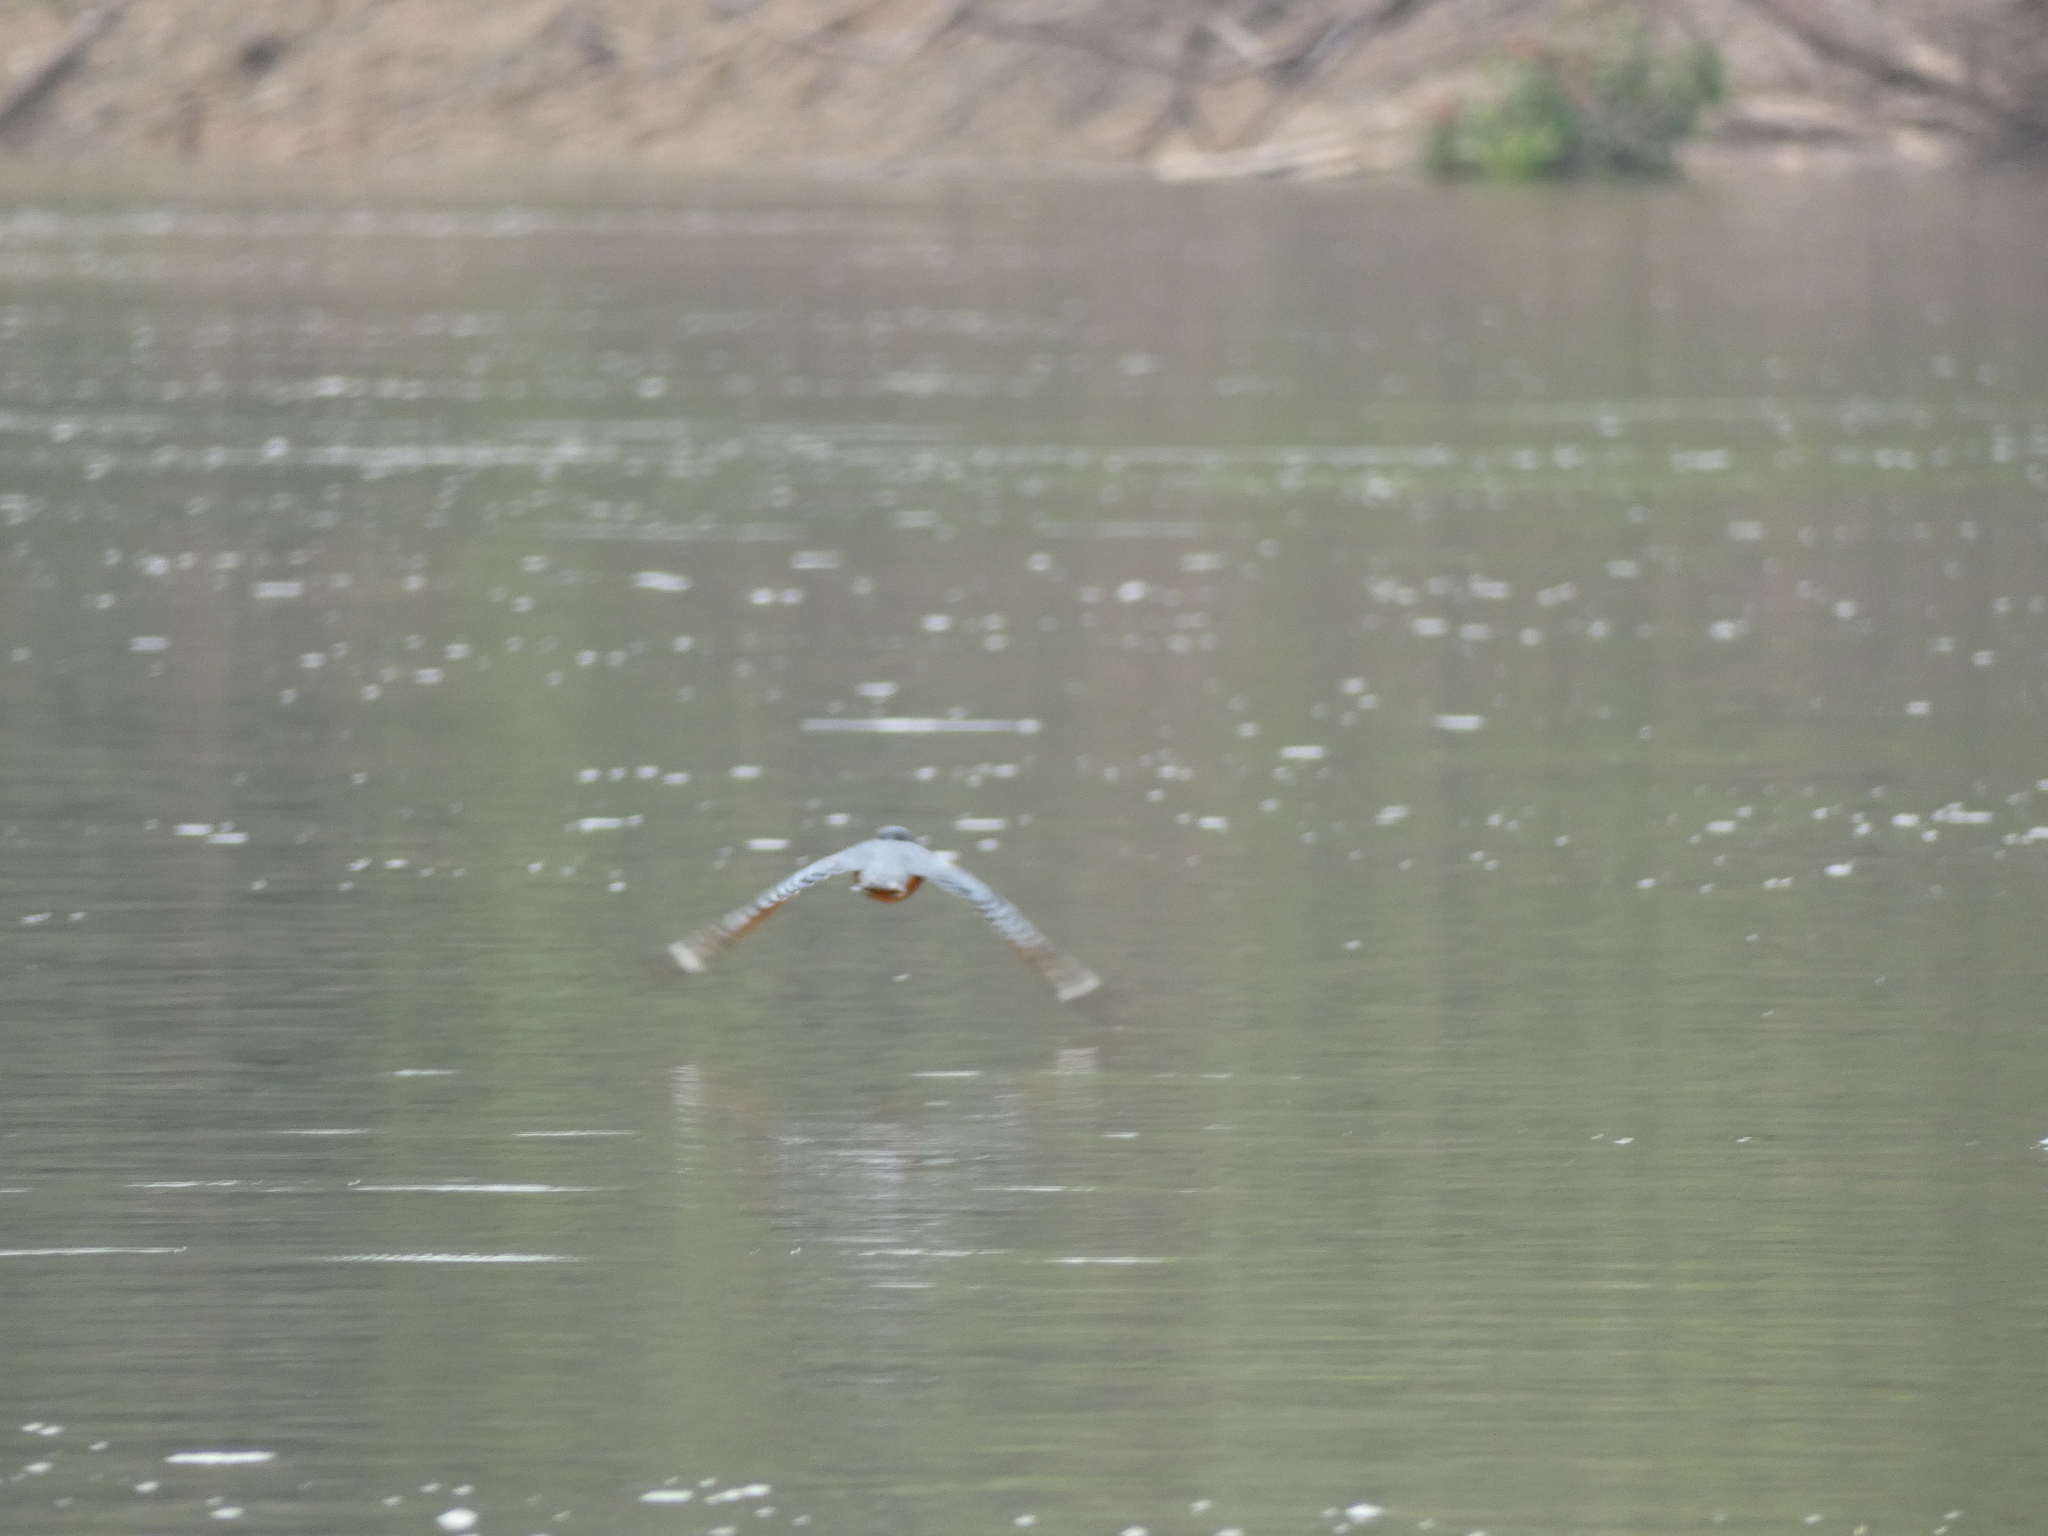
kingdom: Animalia
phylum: Chordata
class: Aves
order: Coraciiformes
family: Alcedinidae
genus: Megaceryle
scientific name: Megaceryle torquata
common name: Ringed kingfisher
